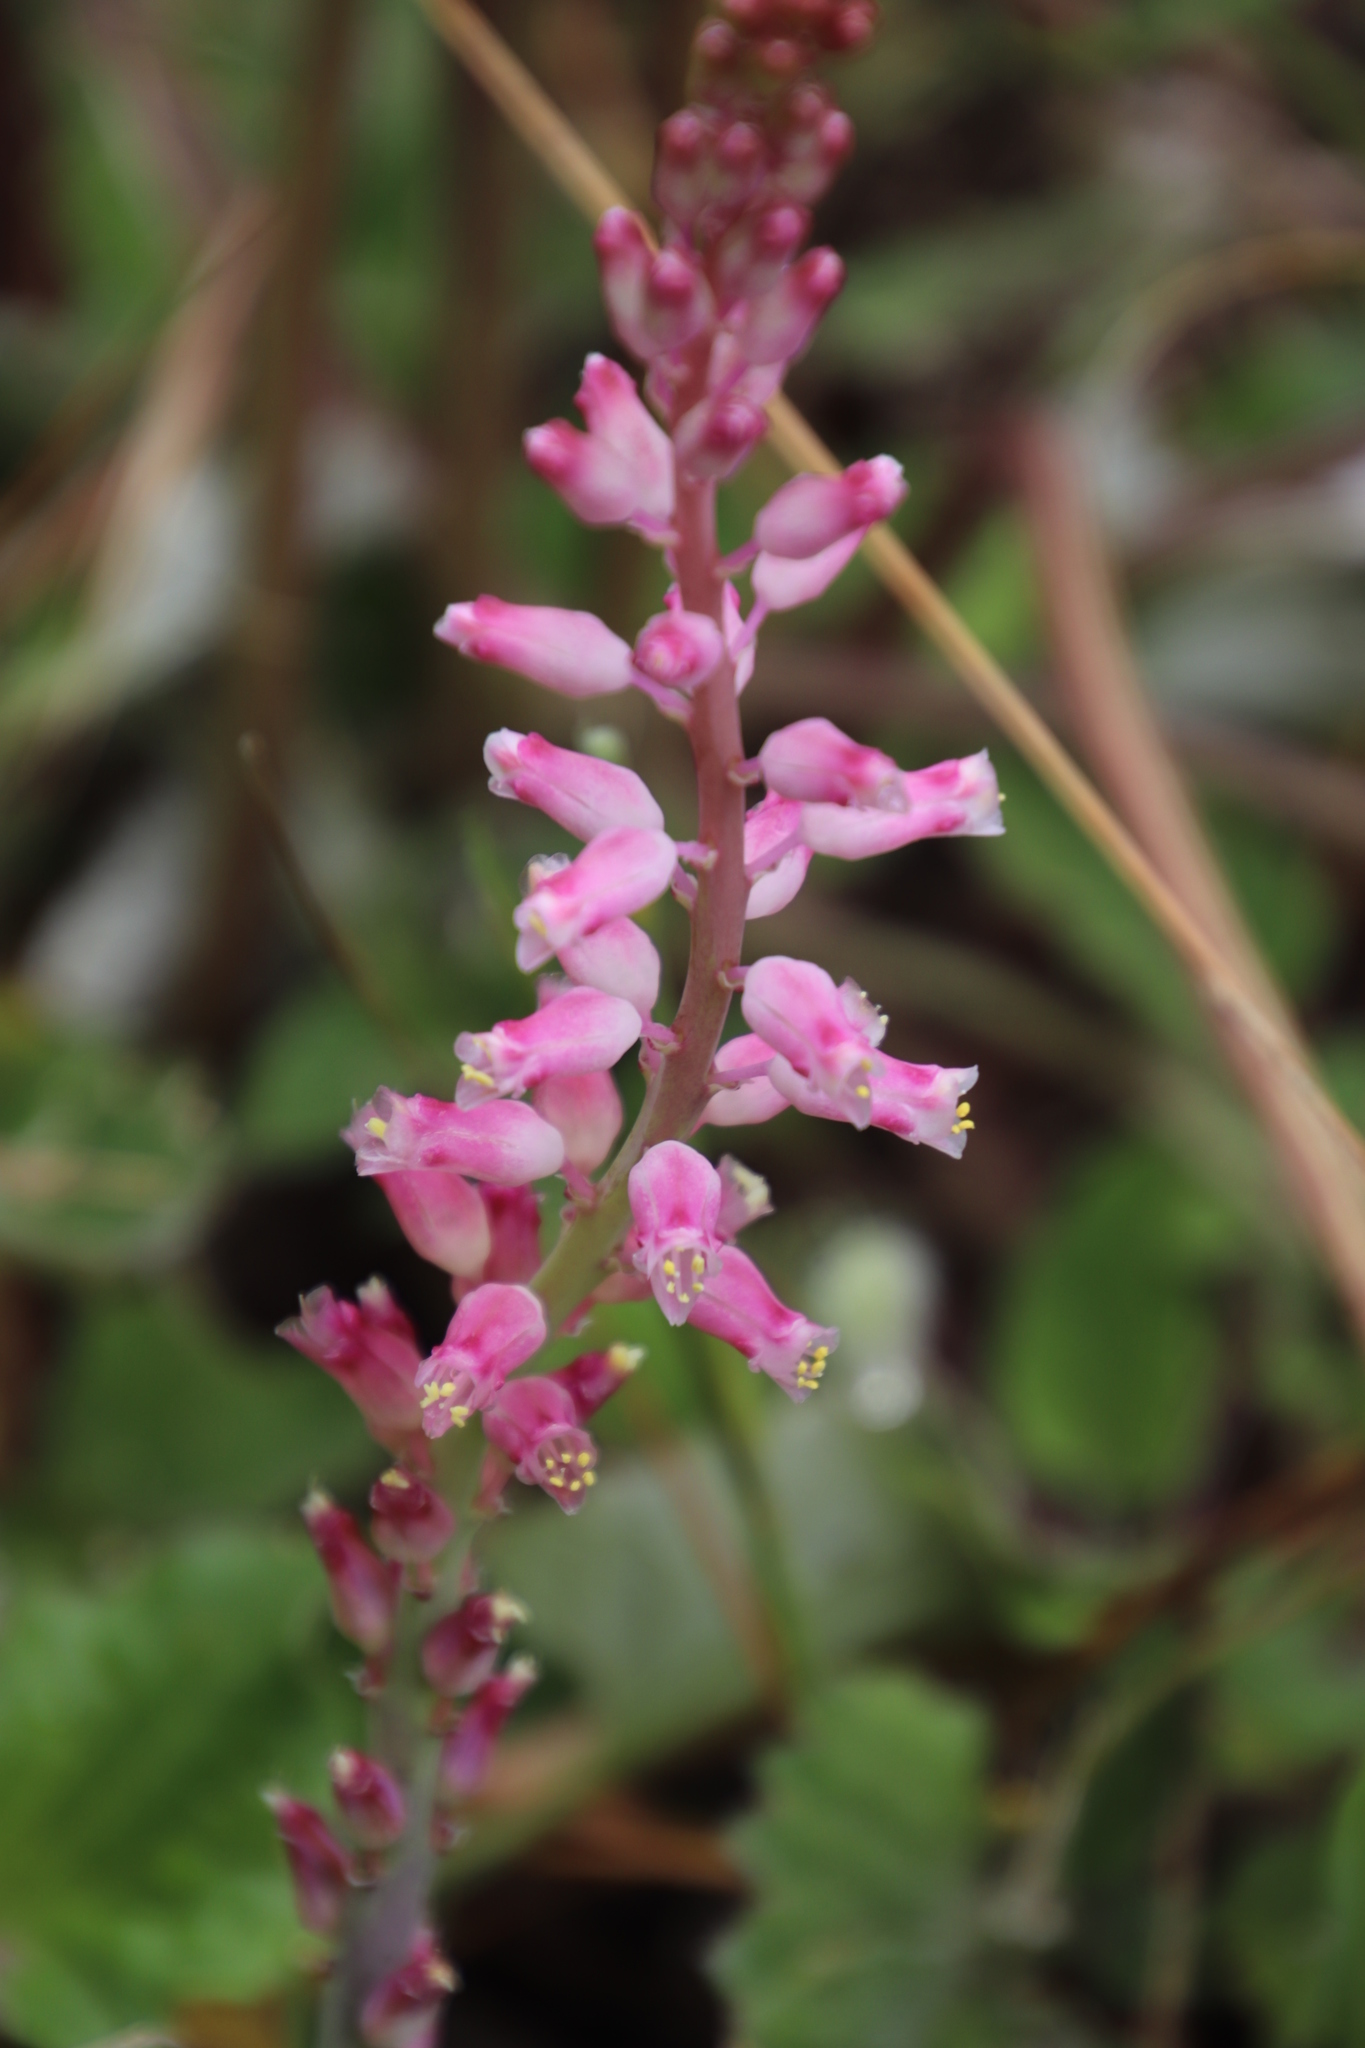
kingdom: Plantae
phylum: Tracheophyta
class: Liliopsida
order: Asparagales
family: Asparagaceae
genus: Lachenalia
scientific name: Lachenalia rosea
